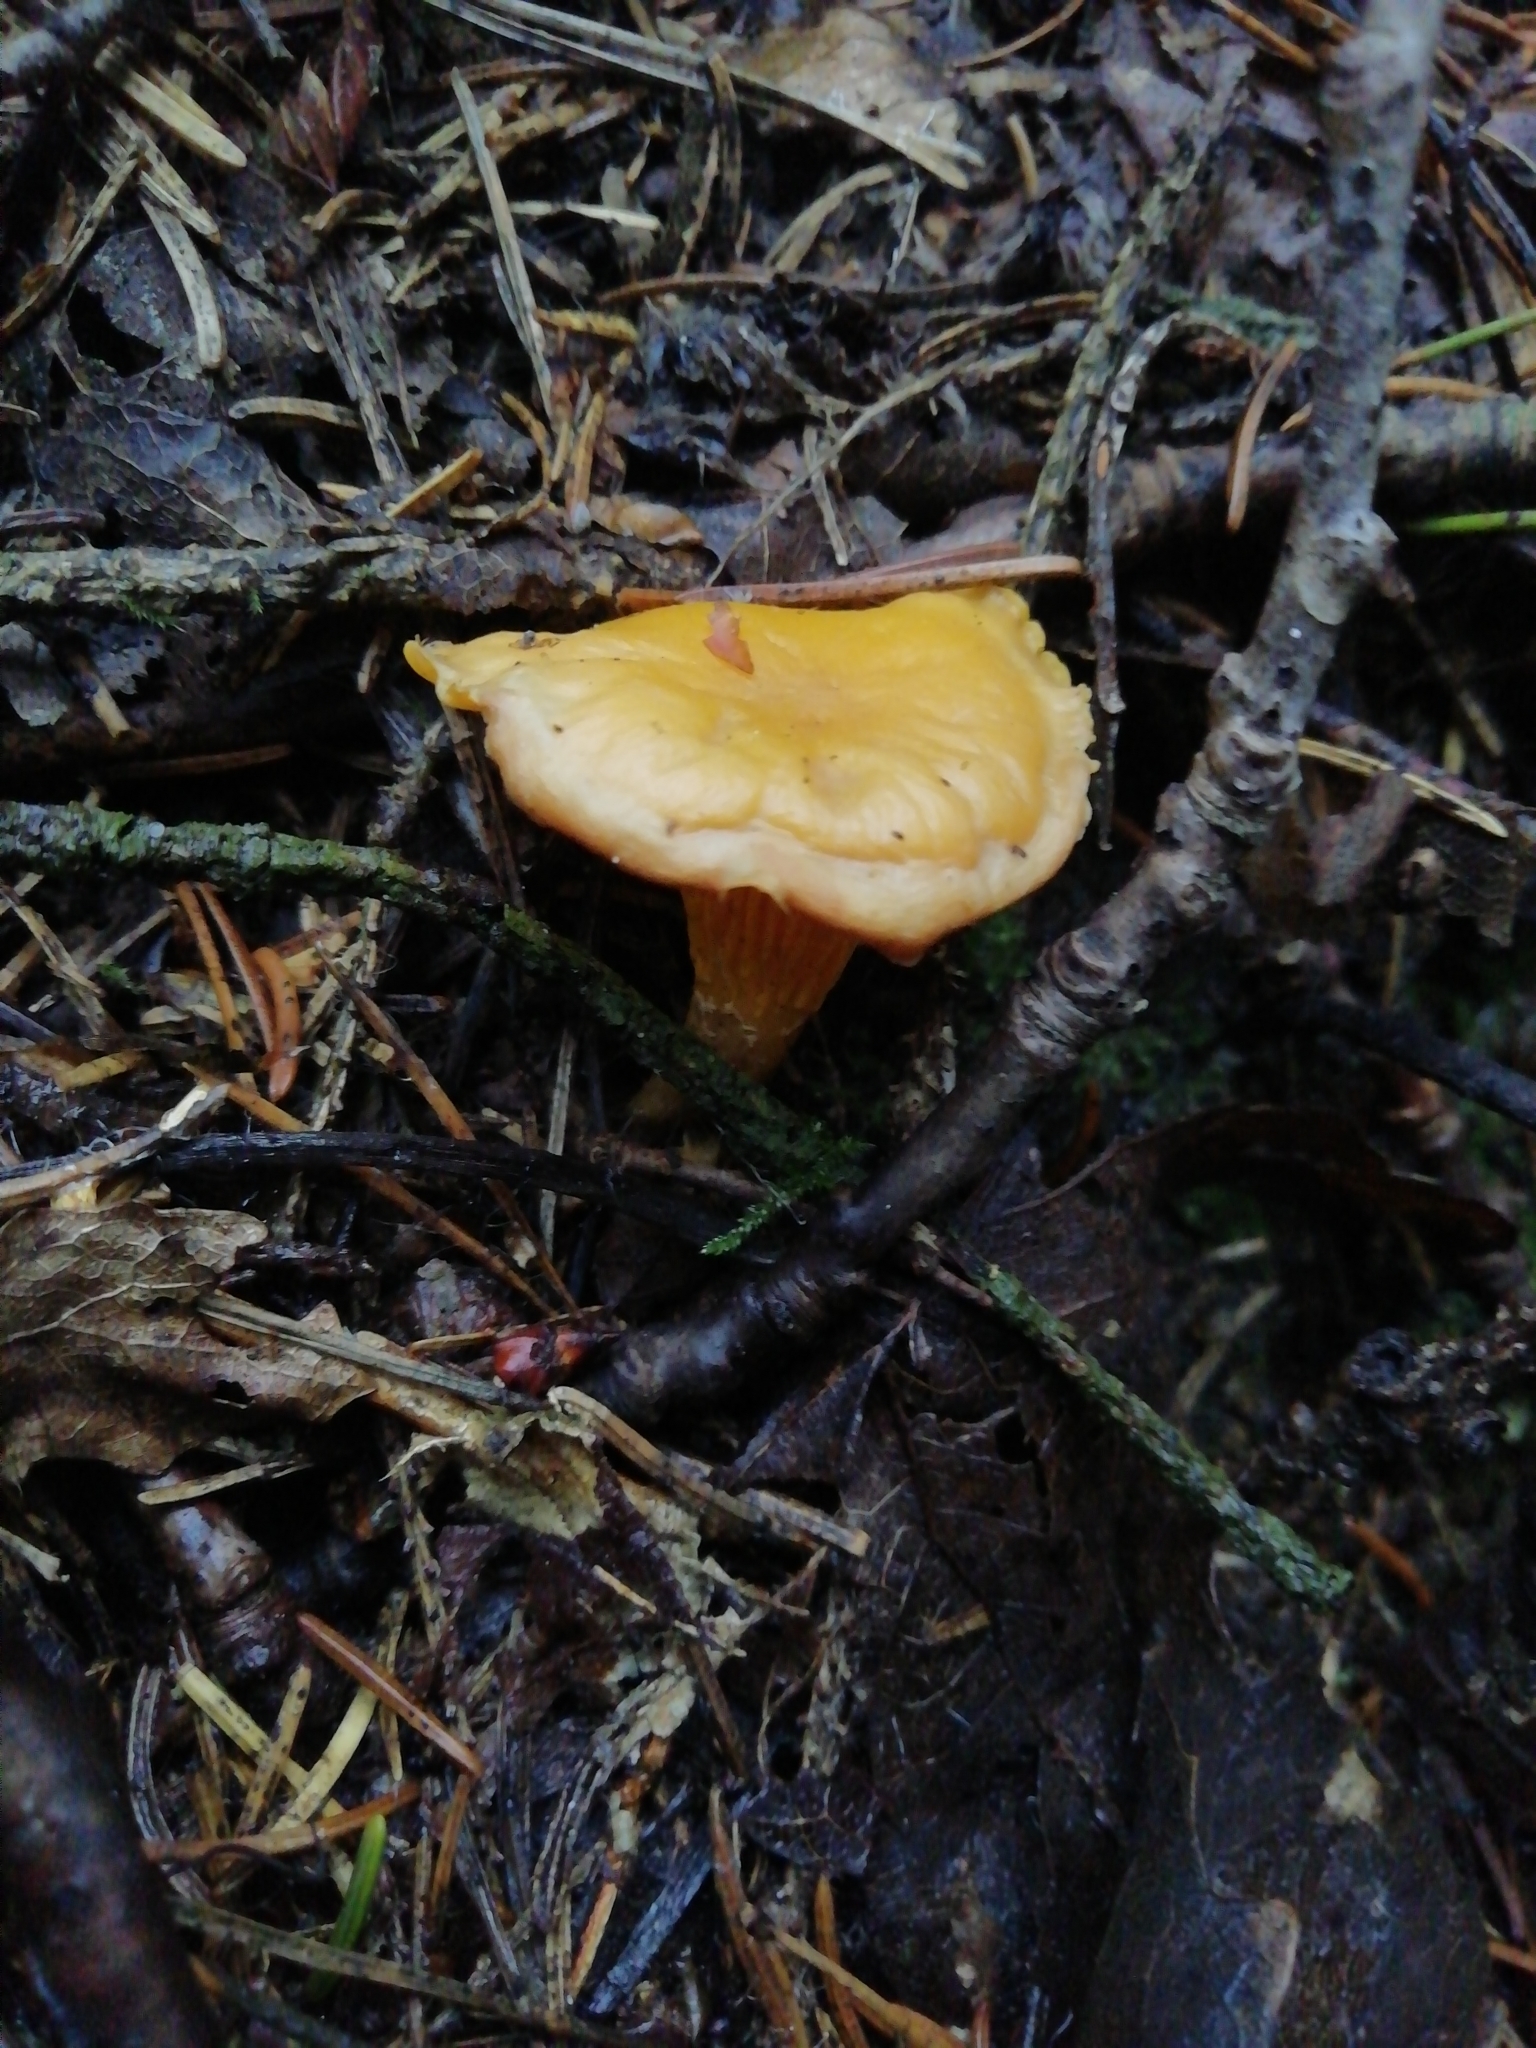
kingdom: Fungi
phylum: Basidiomycota
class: Agaricomycetes
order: Cantharellales
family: Hydnaceae
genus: Cantharellus
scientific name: Cantharellus cibarius
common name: Chanterelle
